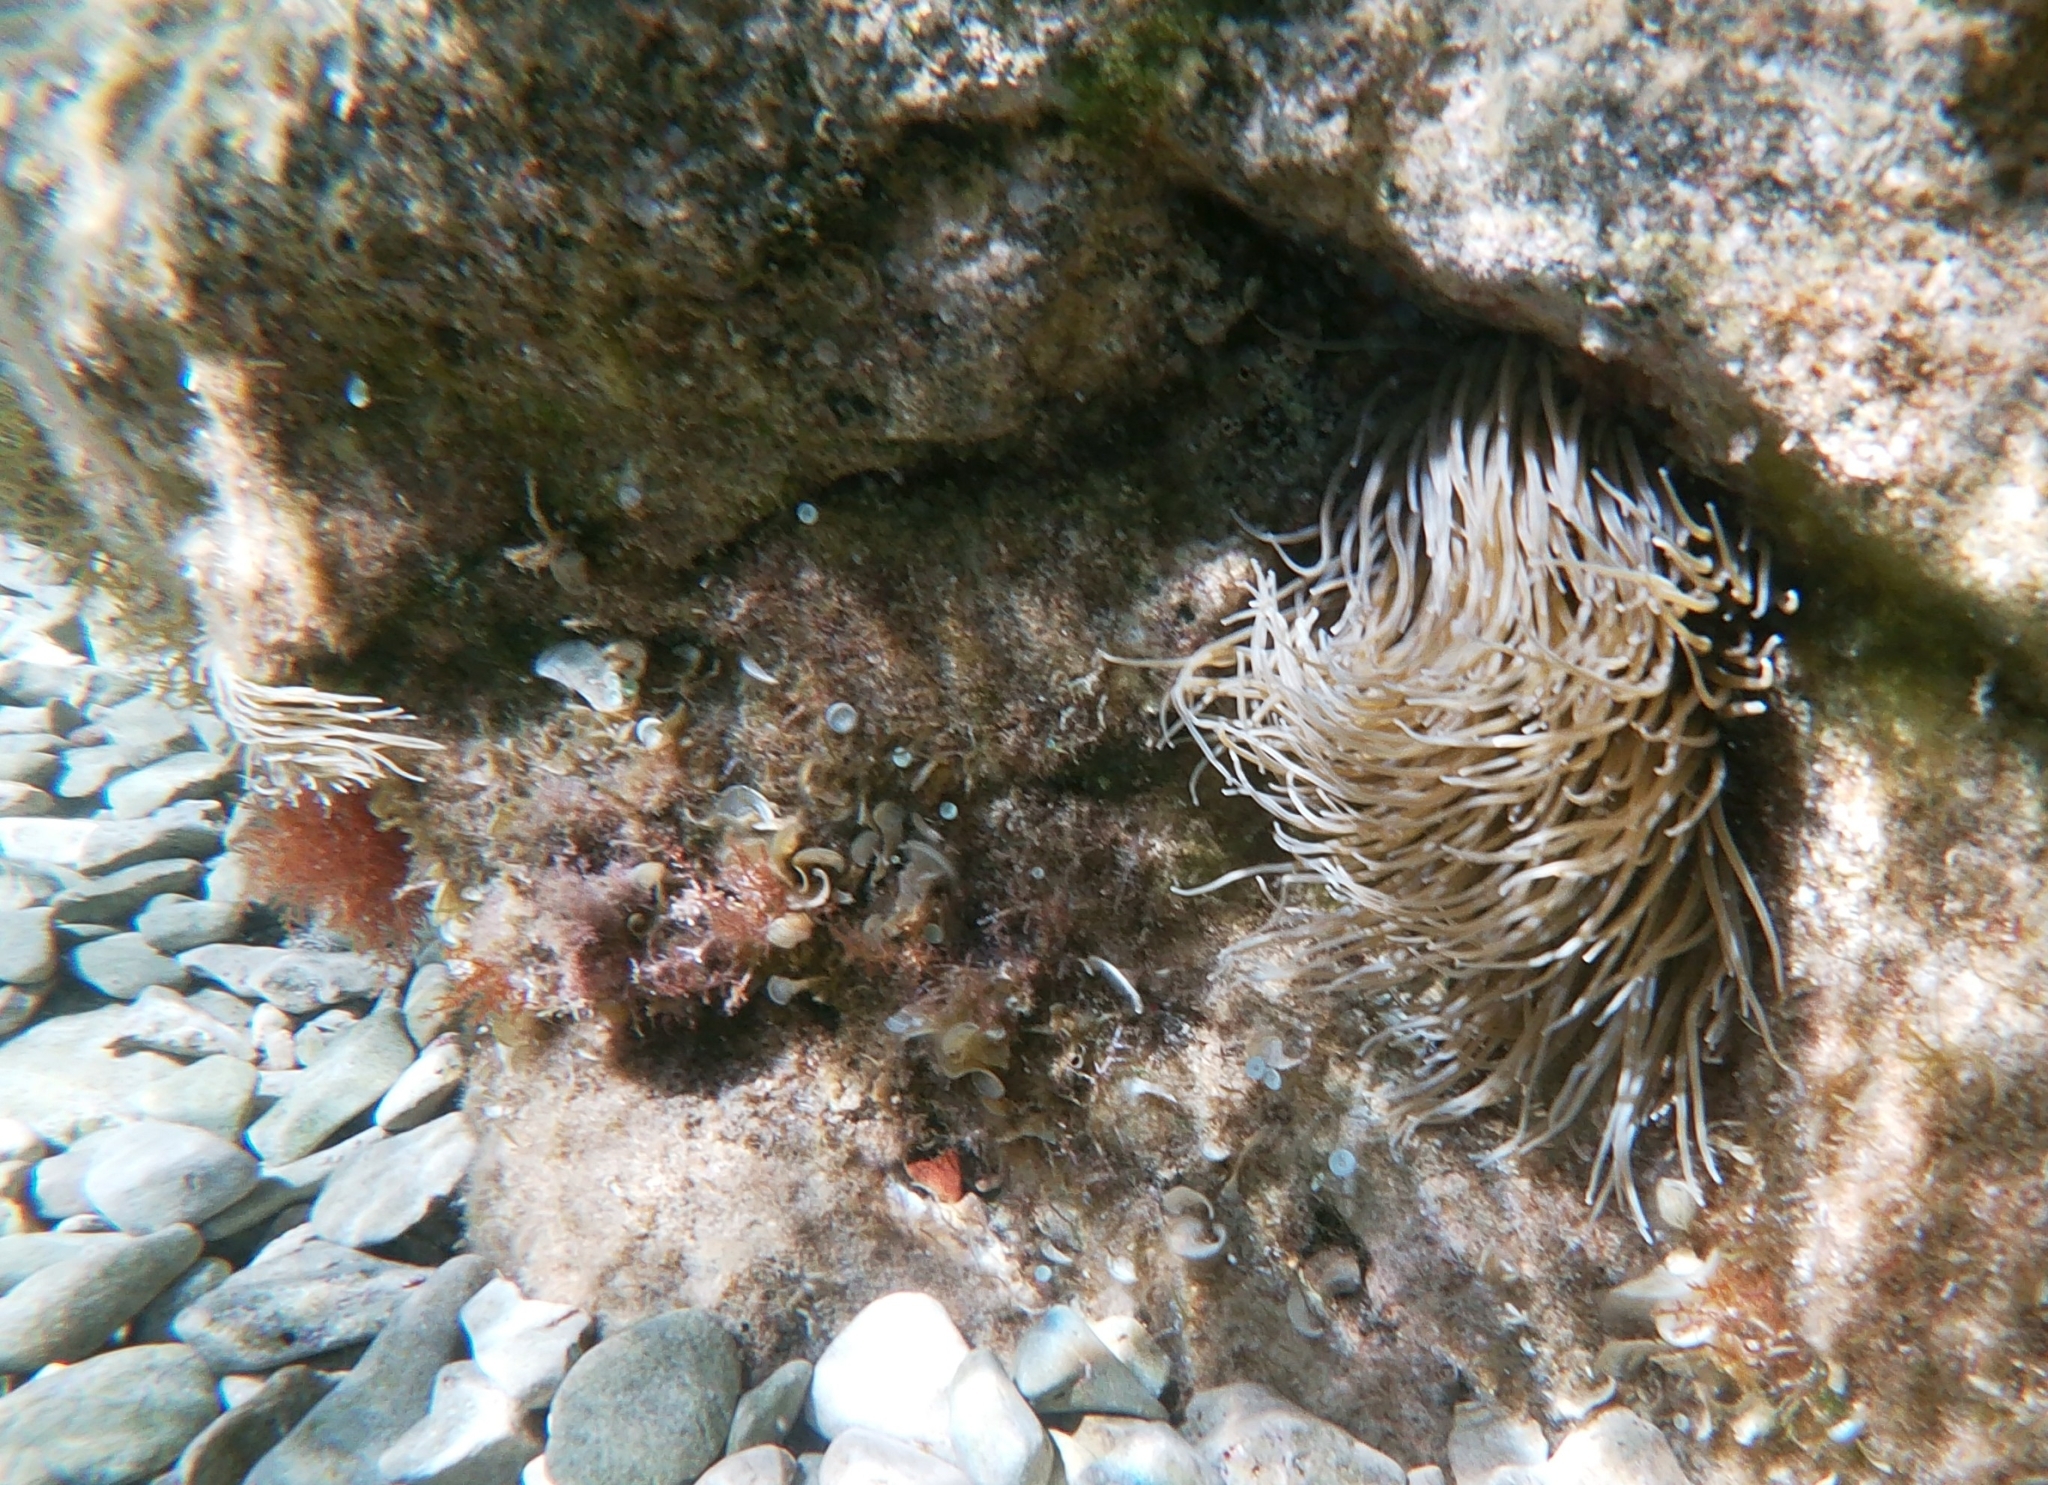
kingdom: Animalia
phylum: Cnidaria
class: Anthozoa
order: Actiniaria
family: Actiniidae
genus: Anemonia
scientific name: Anemonia viridis
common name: Snakelocks anemone
